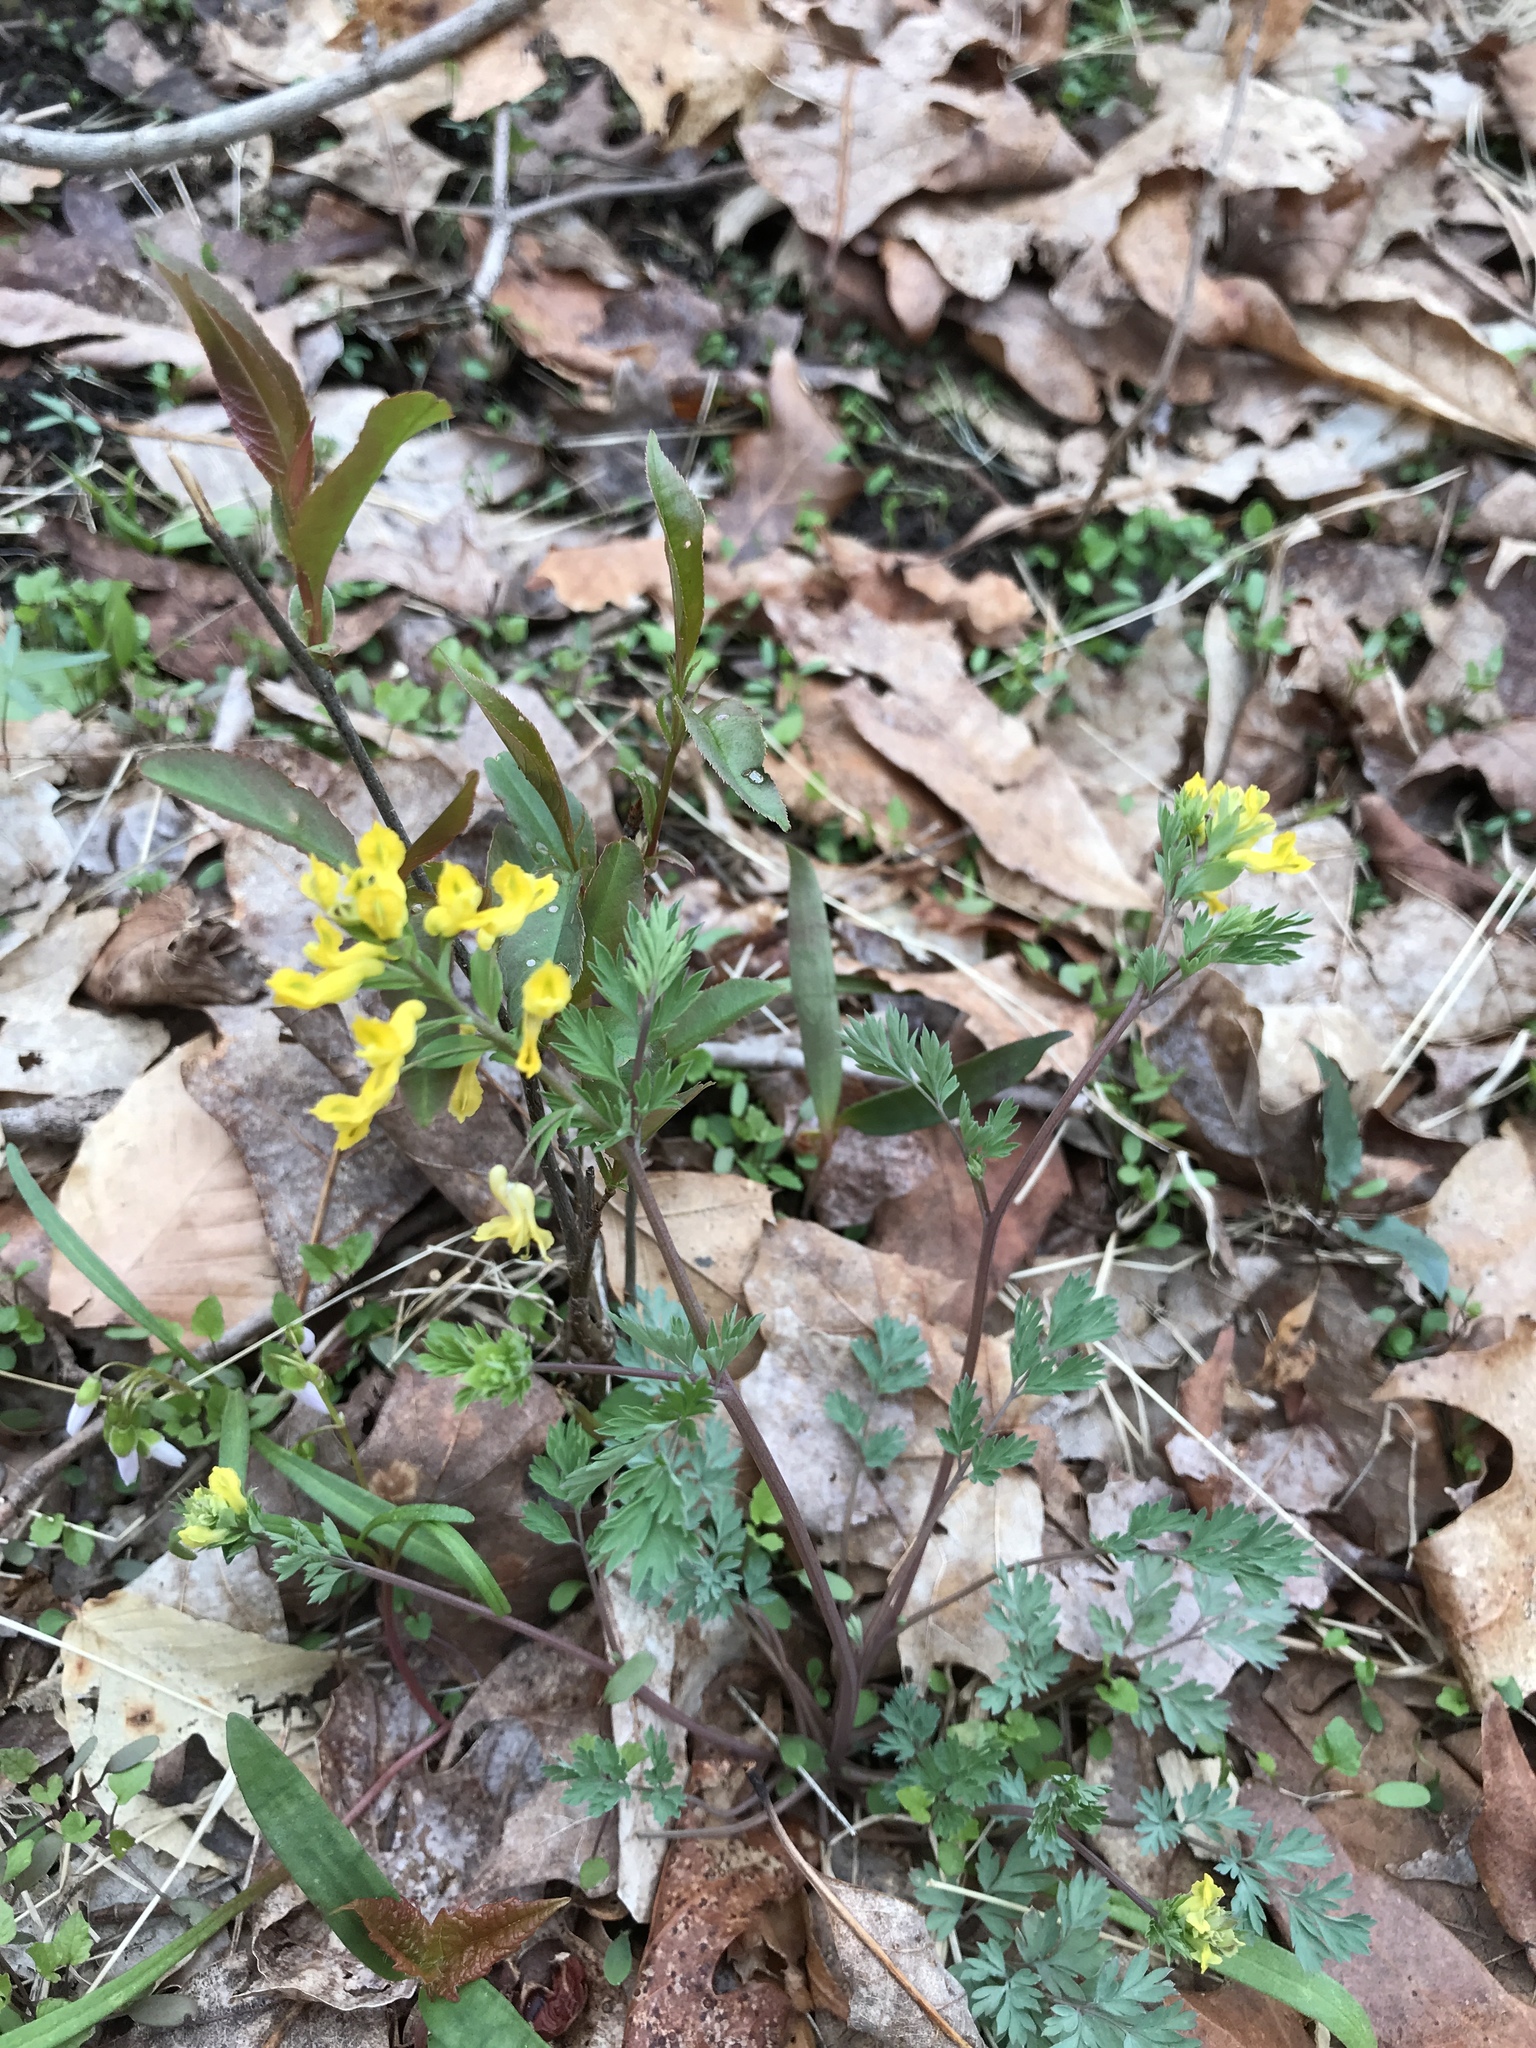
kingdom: Plantae
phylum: Tracheophyta
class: Magnoliopsida
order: Ranunculales
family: Papaveraceae
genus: Corydalis
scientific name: Corydalis flavula
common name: Yellow corydalis
